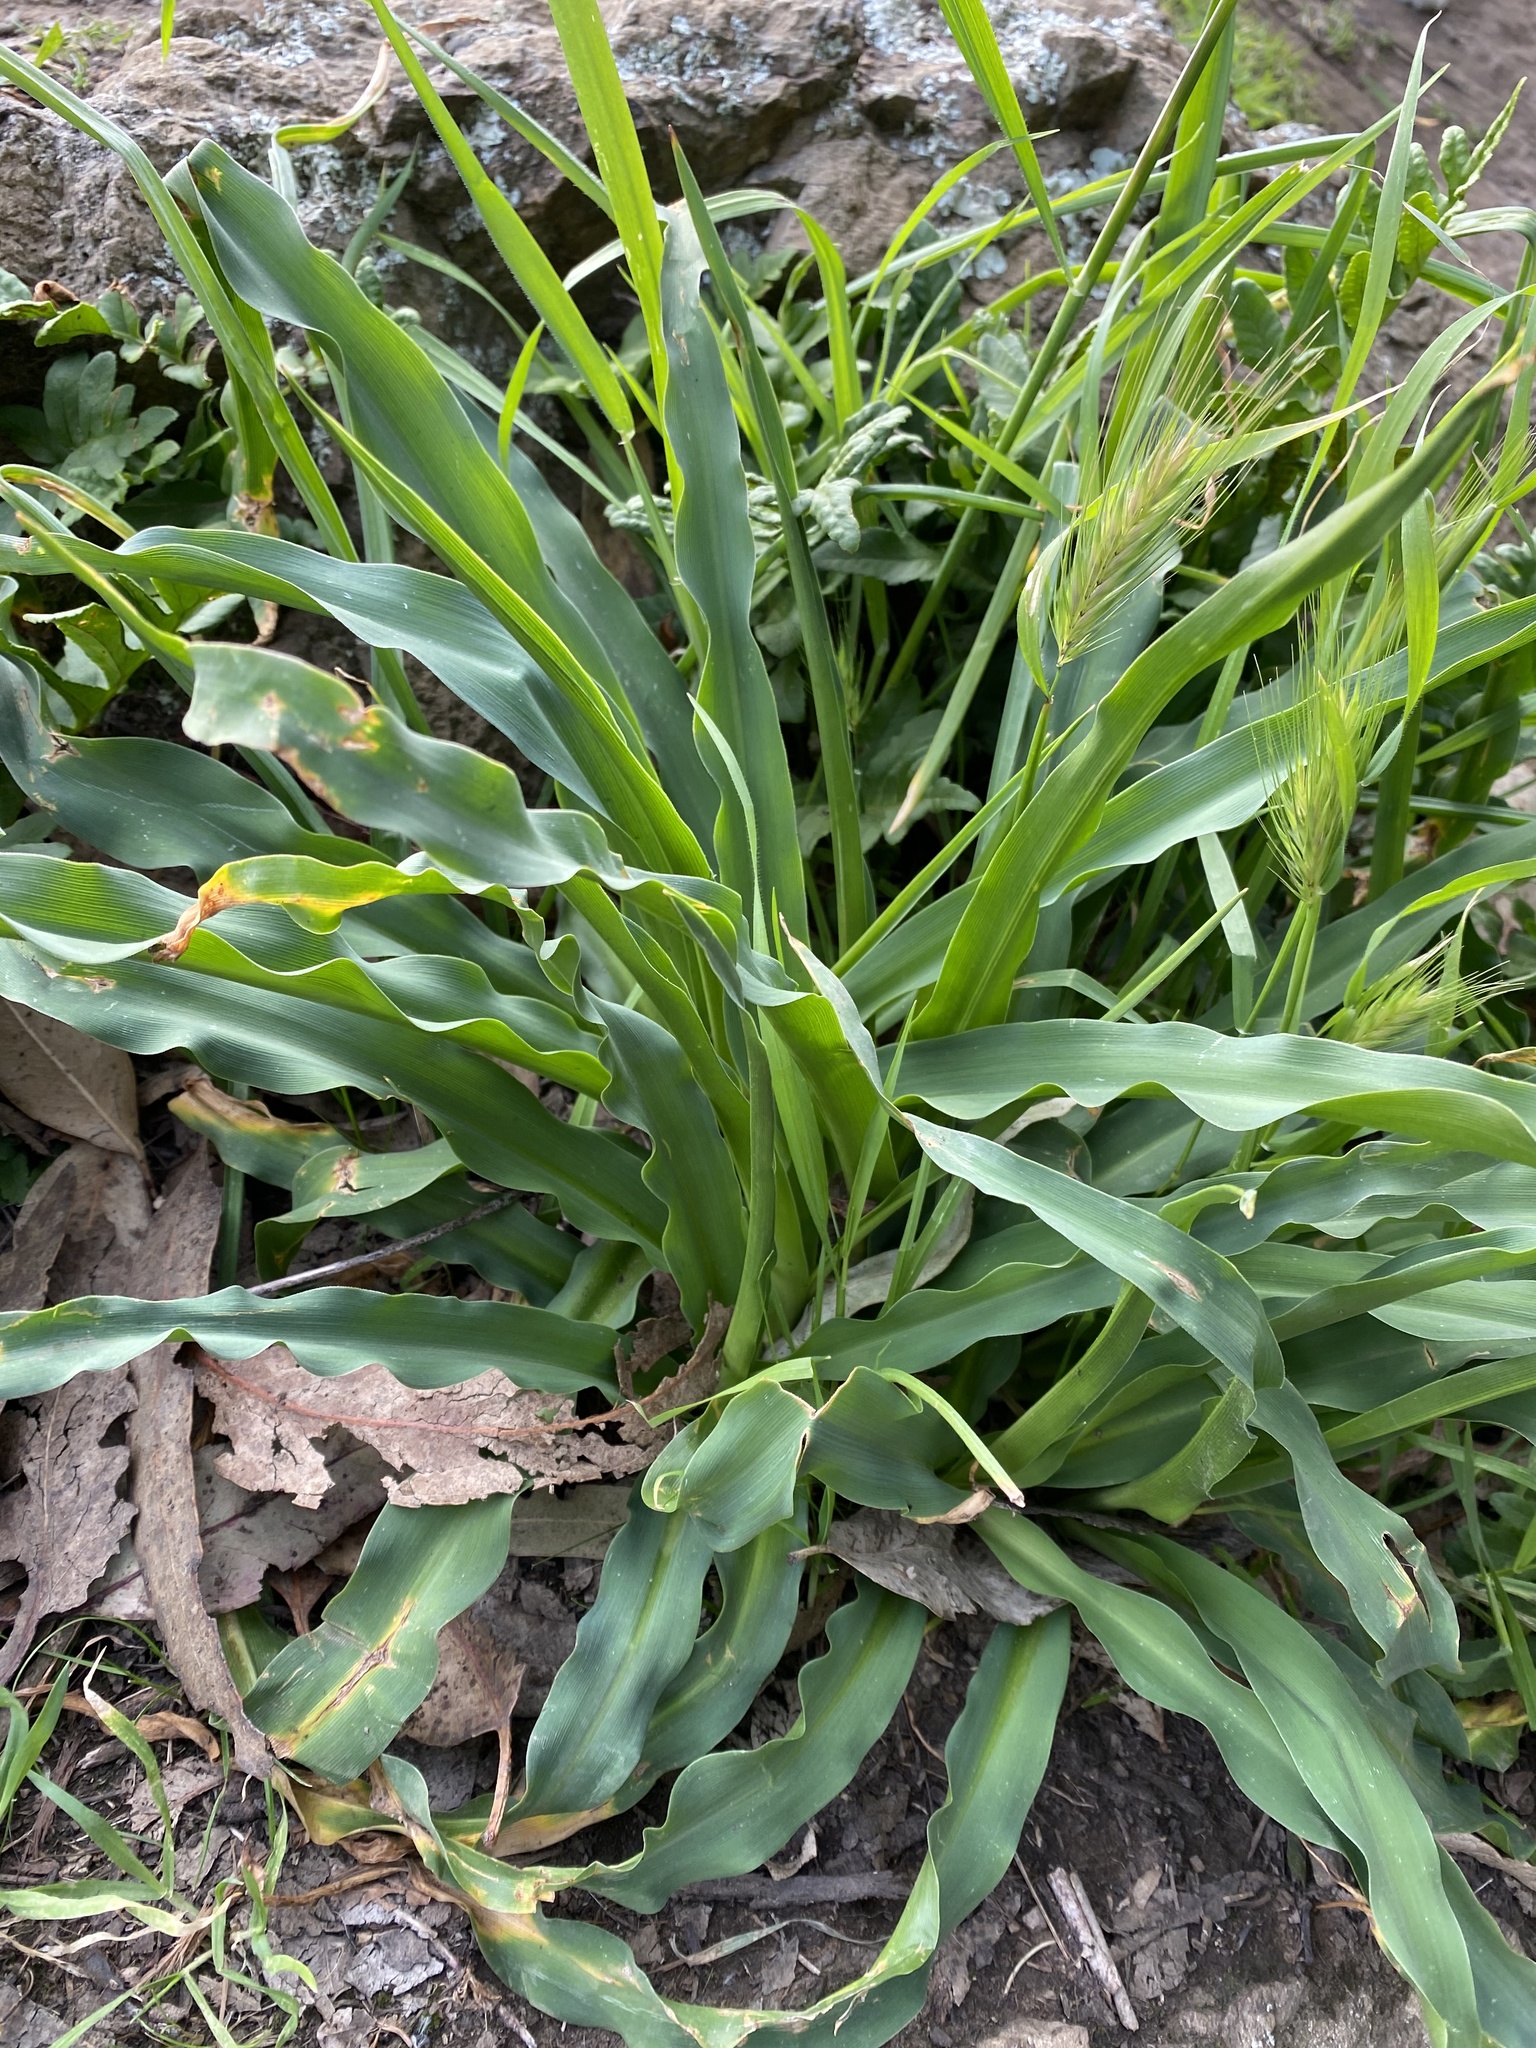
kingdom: Plantae
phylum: Tracheophyta
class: Liliopsida
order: Asparagales
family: Asparagaceae
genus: Chlorogalum
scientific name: Chlorogalum pomeridianum
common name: Amole
